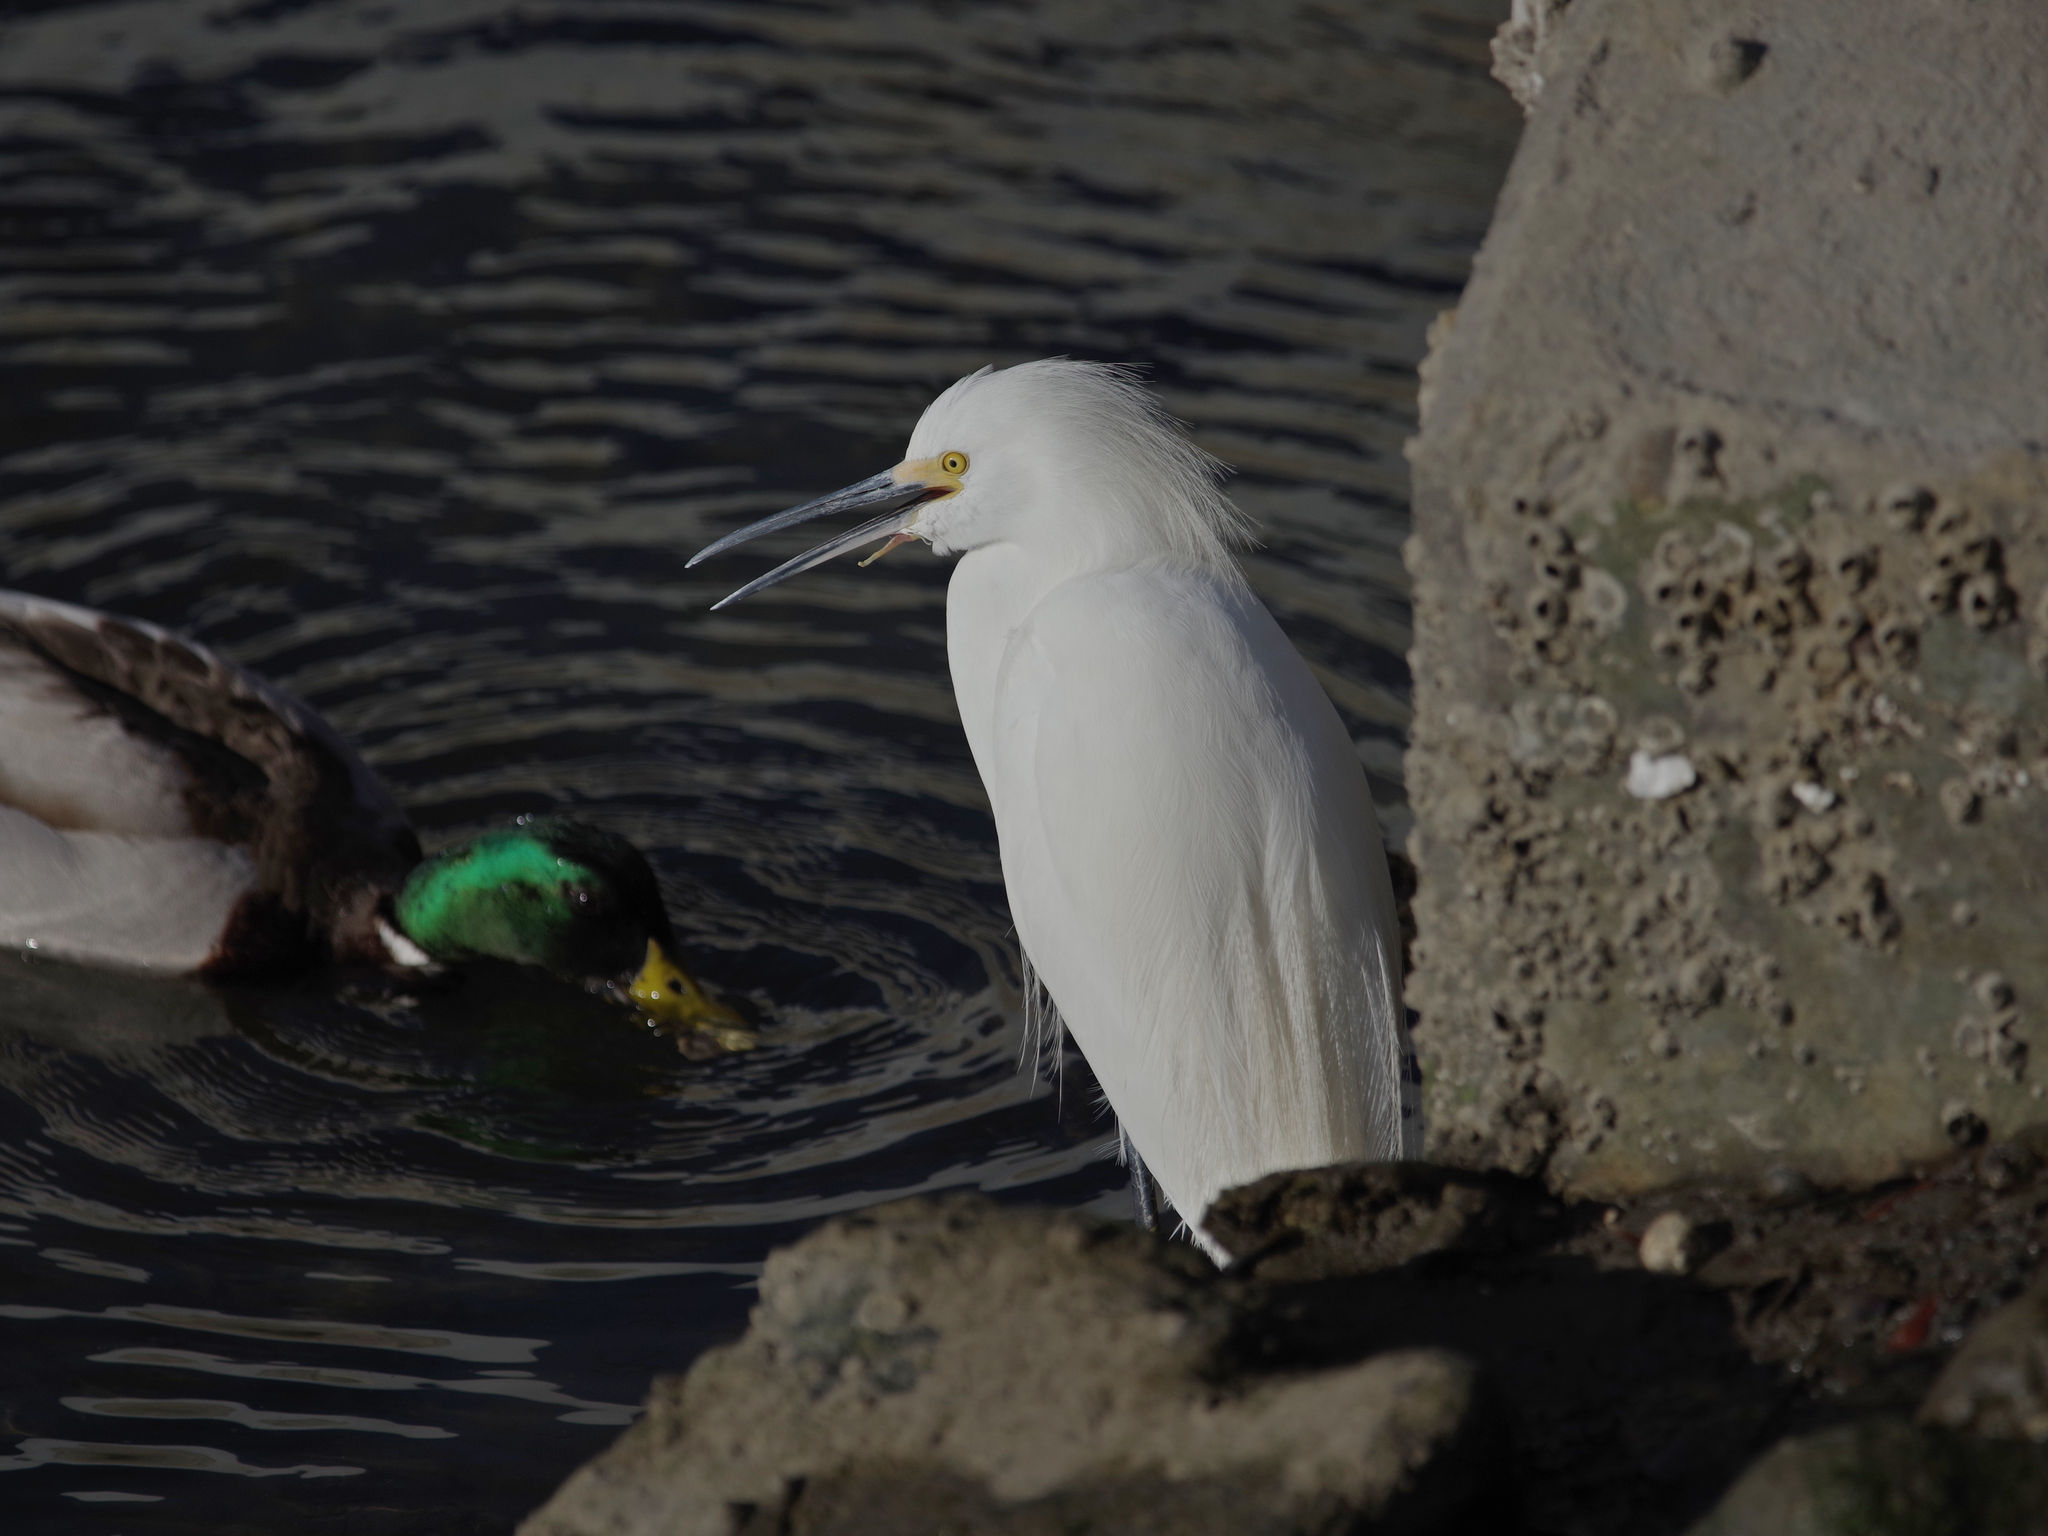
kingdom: Animalia
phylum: Chordata
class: Aves
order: Pelecaniformes
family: Ardeidae
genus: Egretta
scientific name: Egretta thula
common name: Snowy egret
